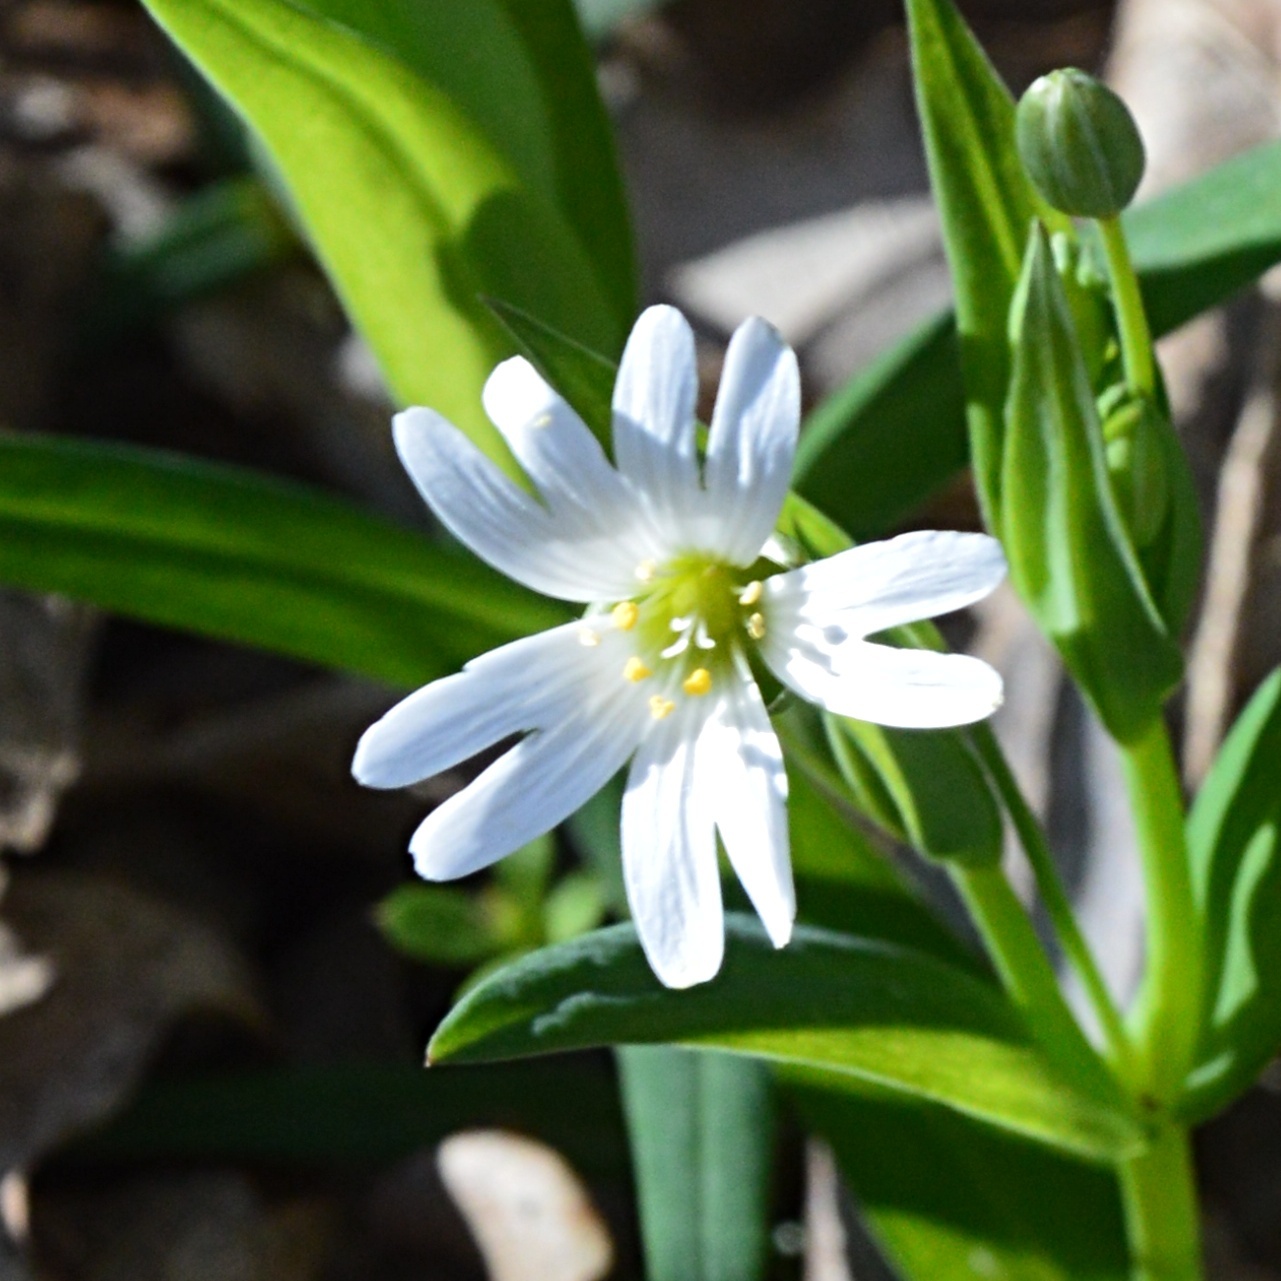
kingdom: Plantae
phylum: Tracheophyta
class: Magnoliopsida
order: Caryophyllales
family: Caryophyllaceae
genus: Rabelera
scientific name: Rabelera holostea
